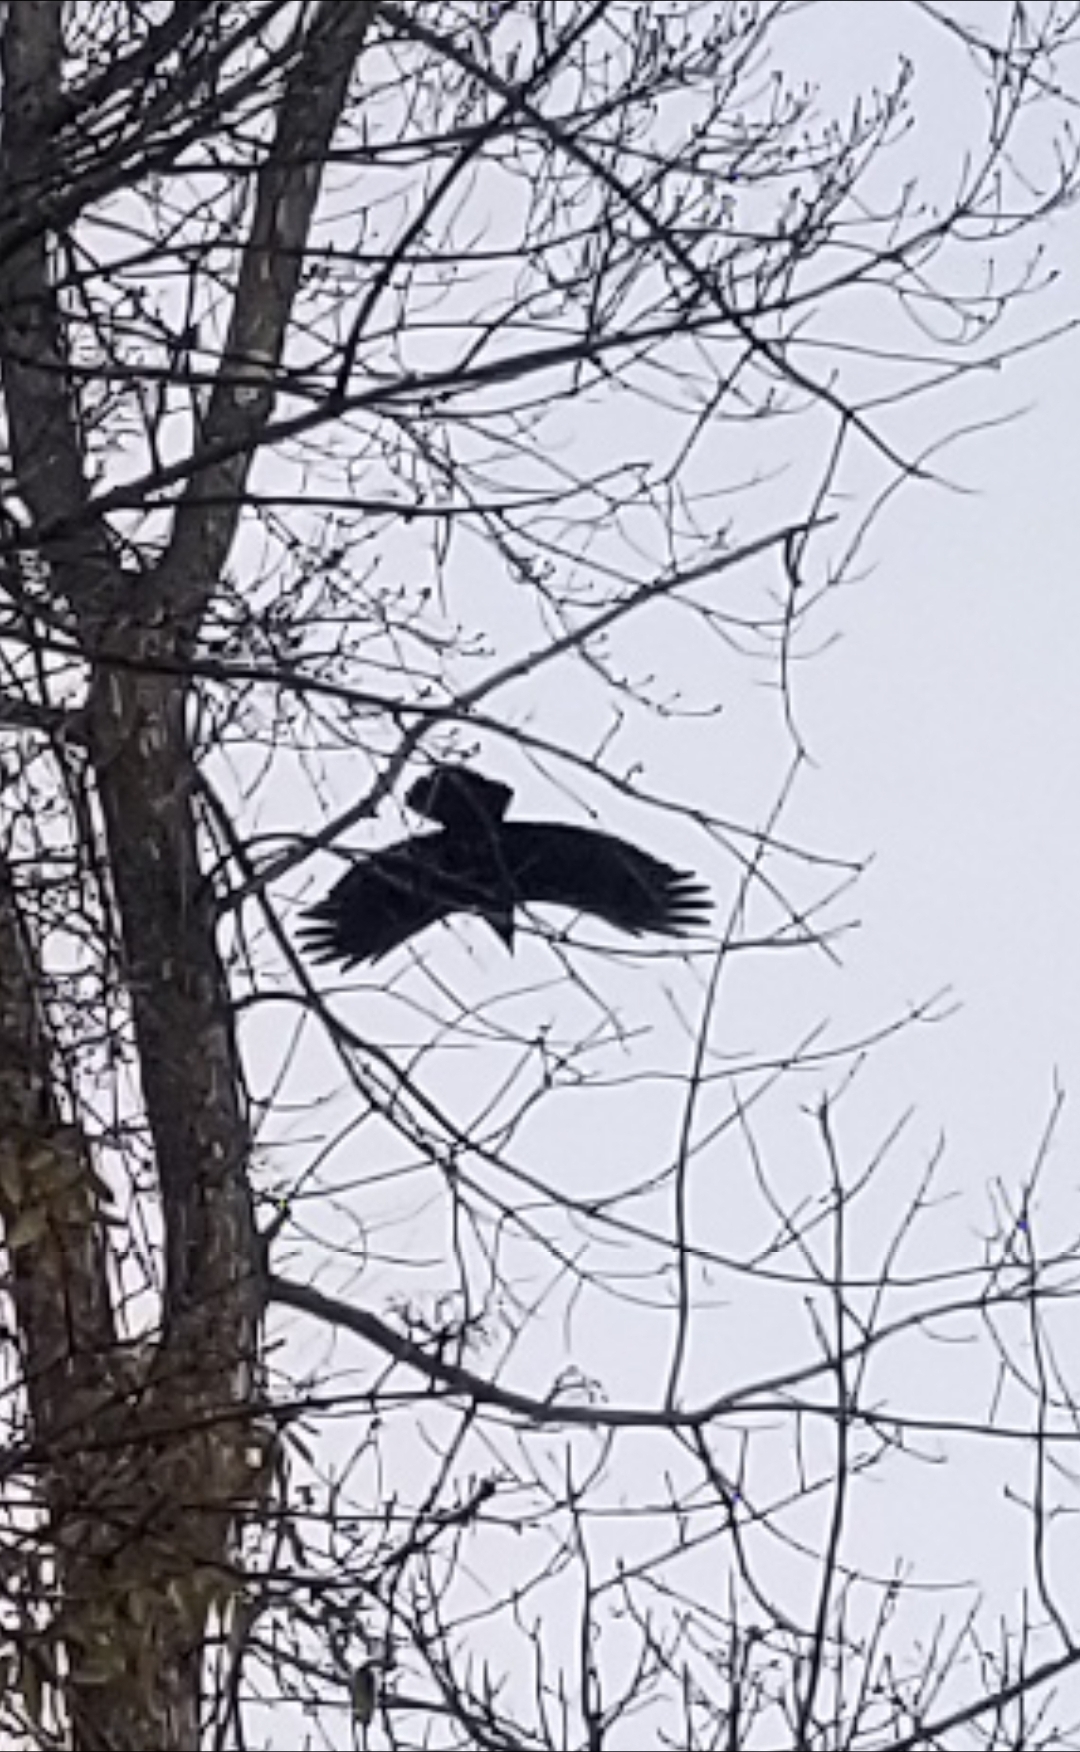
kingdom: Animalia
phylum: Chordata
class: Aves
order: Passeriformes
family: Corvidae
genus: Corvus
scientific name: Corvus brachyrhynchos
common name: American crow
